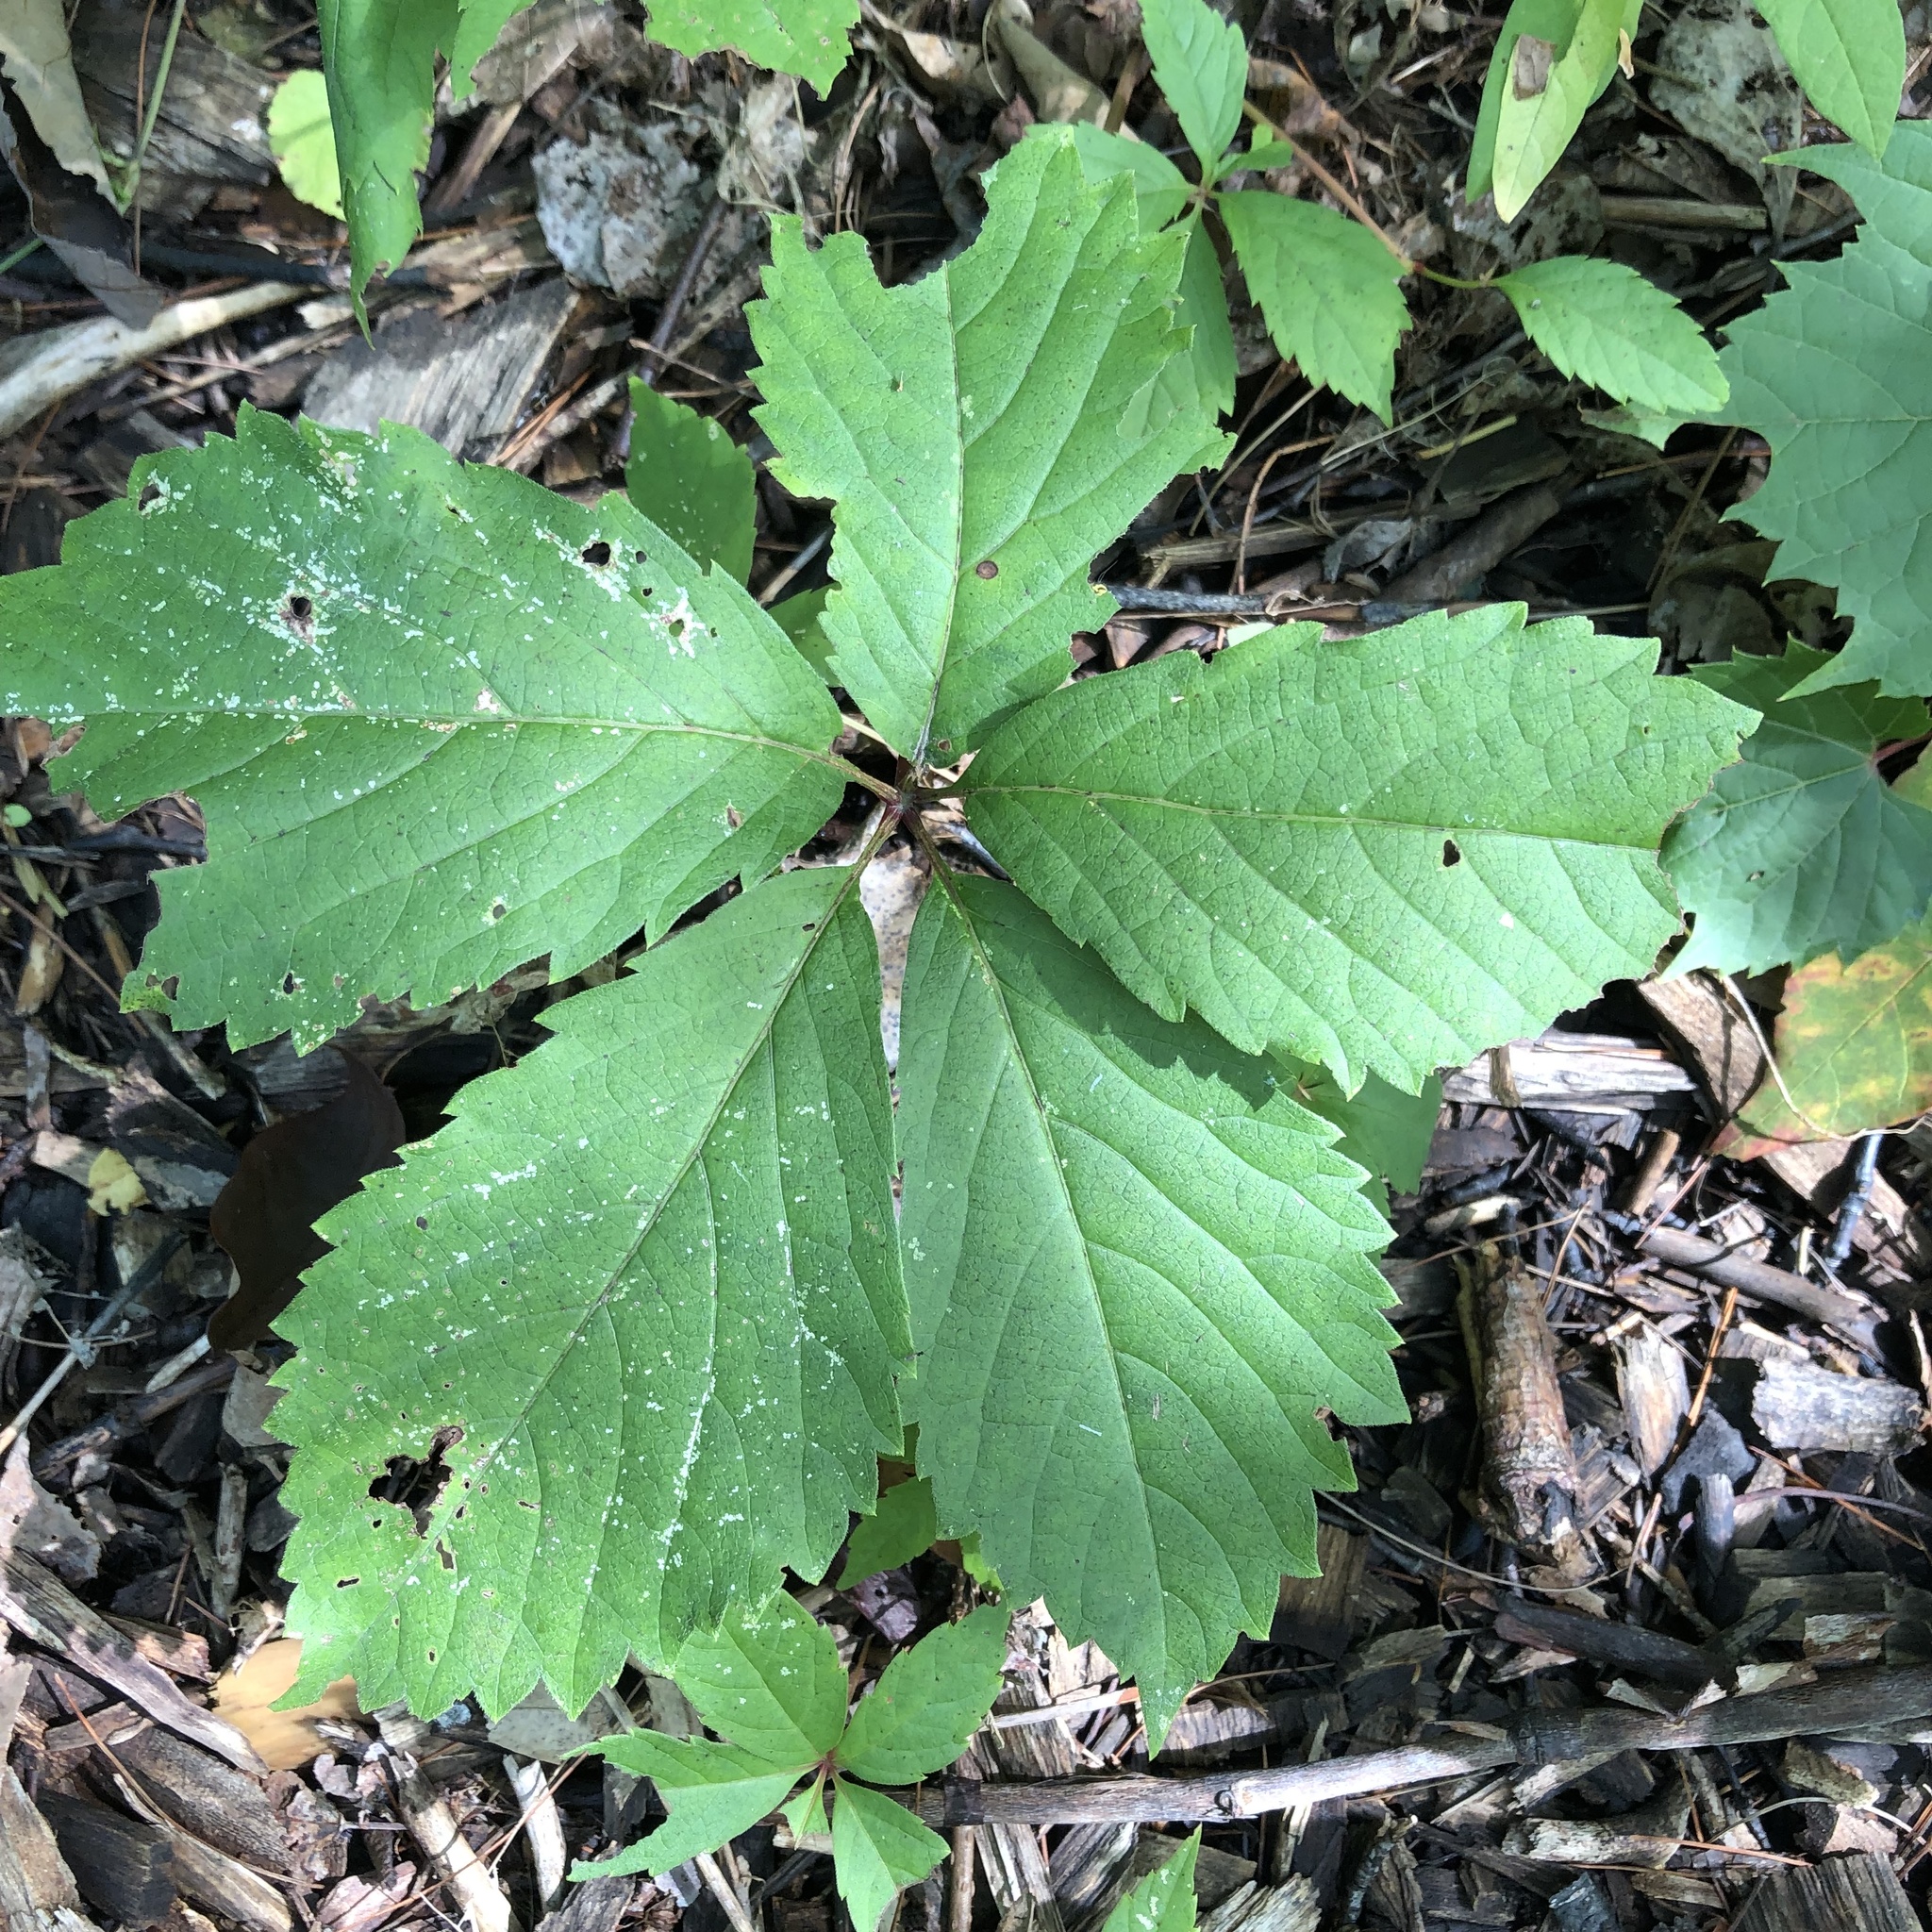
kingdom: Plantae
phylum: Tracheophyta
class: Magnoliopsida
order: Vitales
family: Vitaceae
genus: Parthenocissus
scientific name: Parthenocissus inserta
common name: False virginia-creeper
